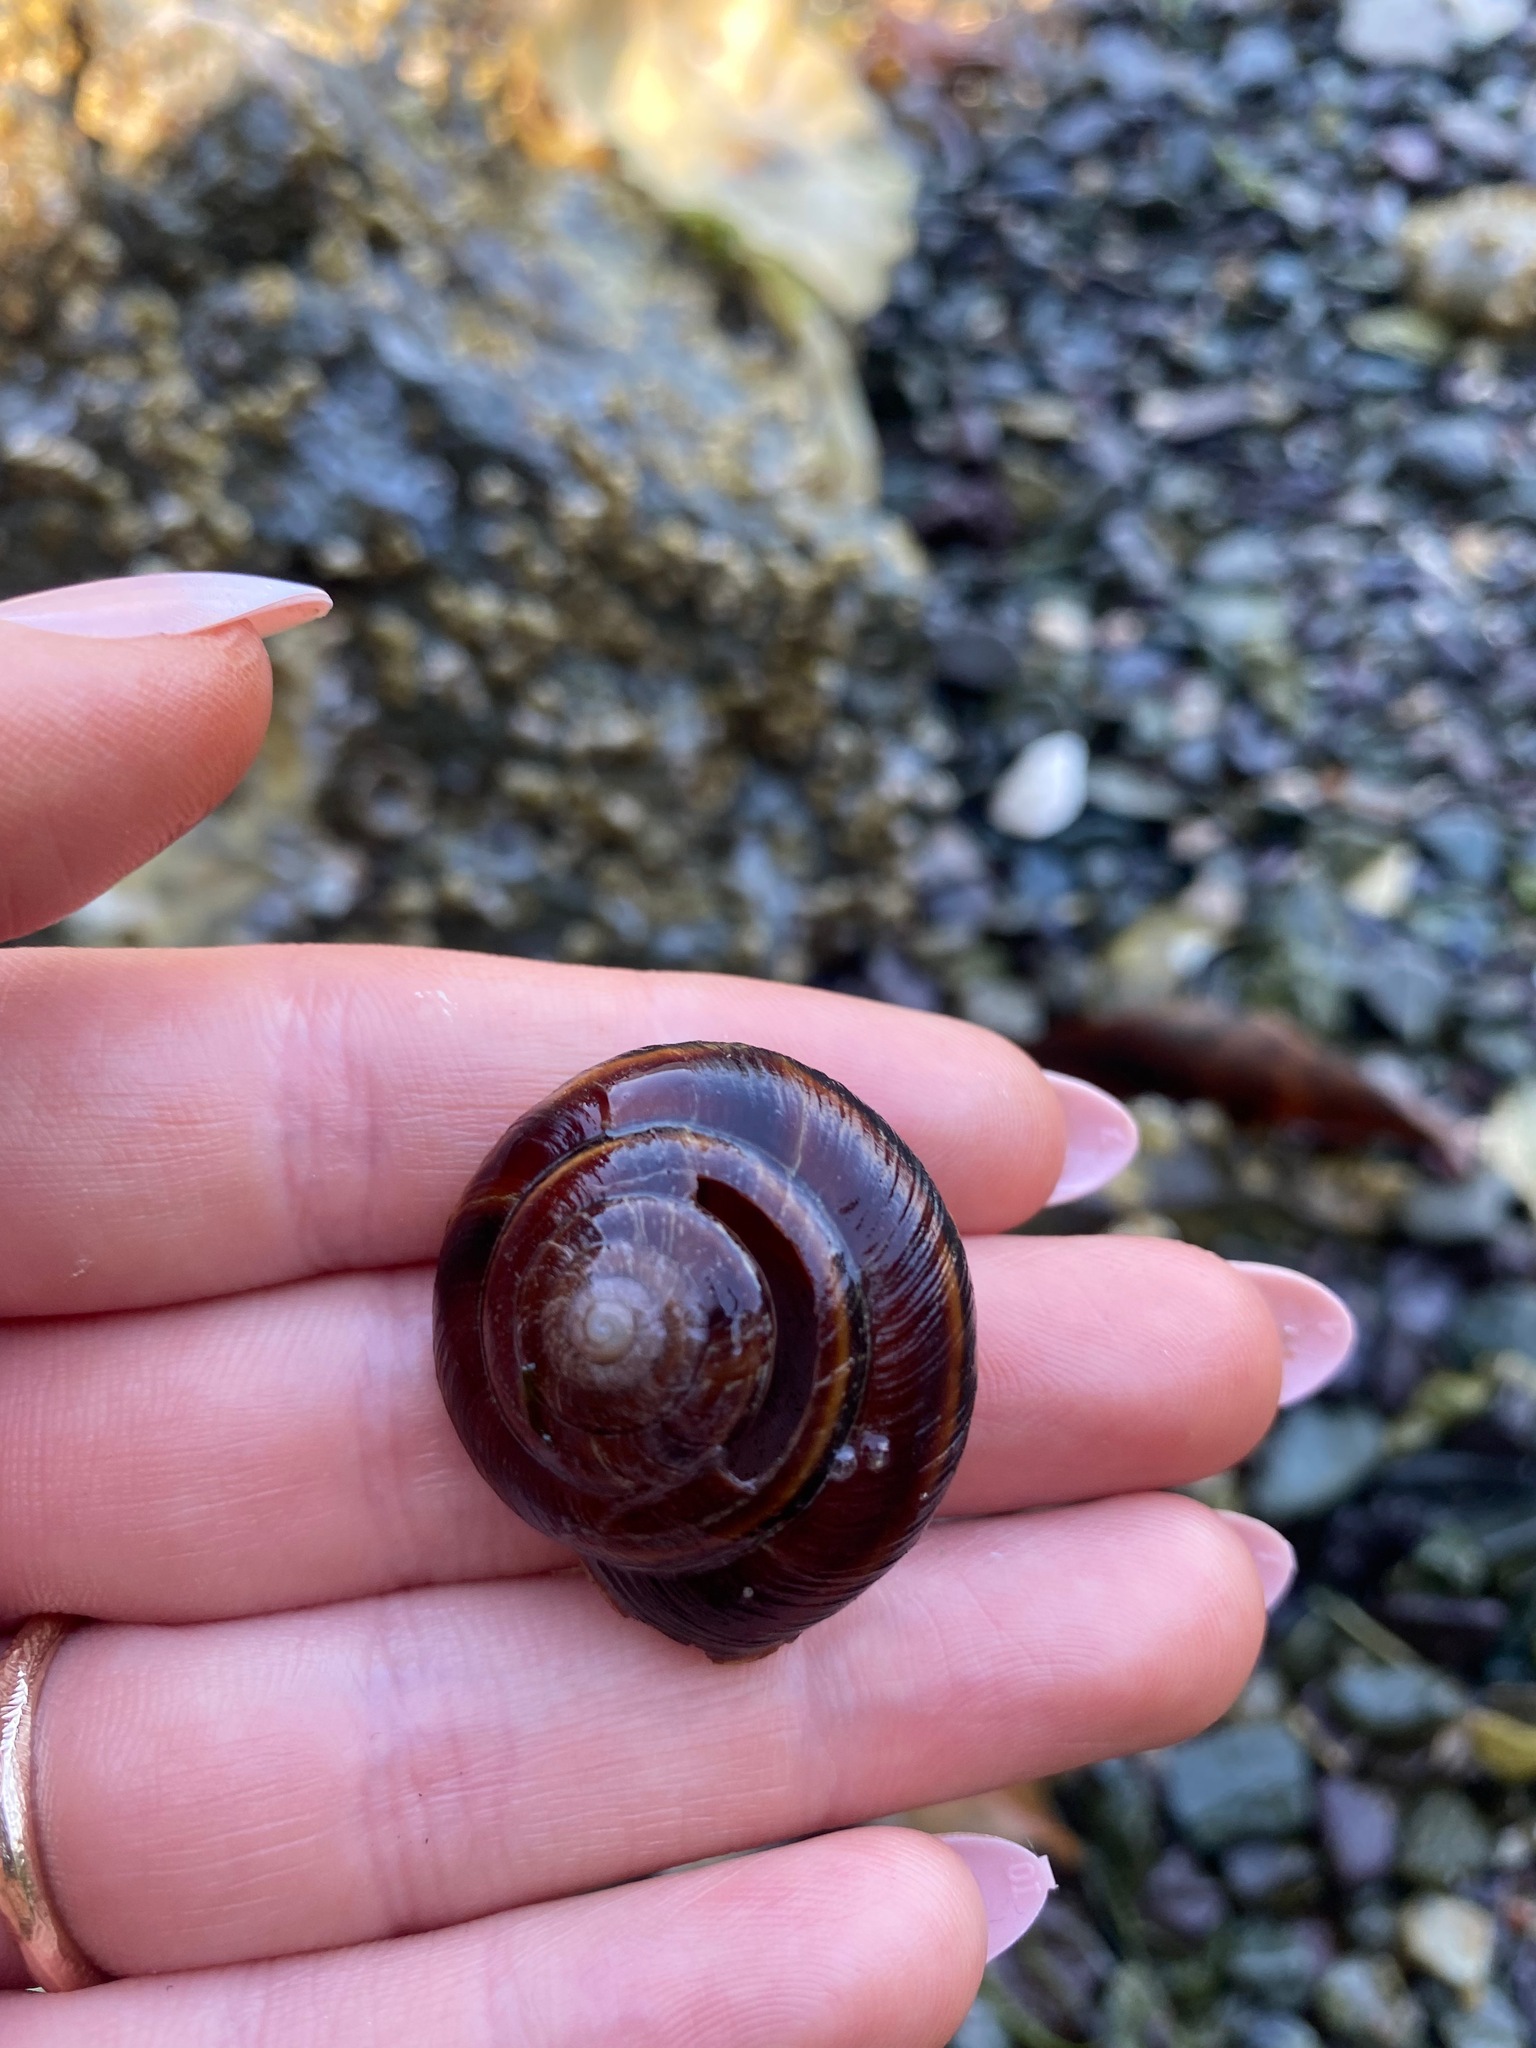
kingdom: Animalia
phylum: Mollusca
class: Gastropoda
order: Stylommatophora
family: Xanthonychidae
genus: Monadenia
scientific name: Monadenia fidelis
